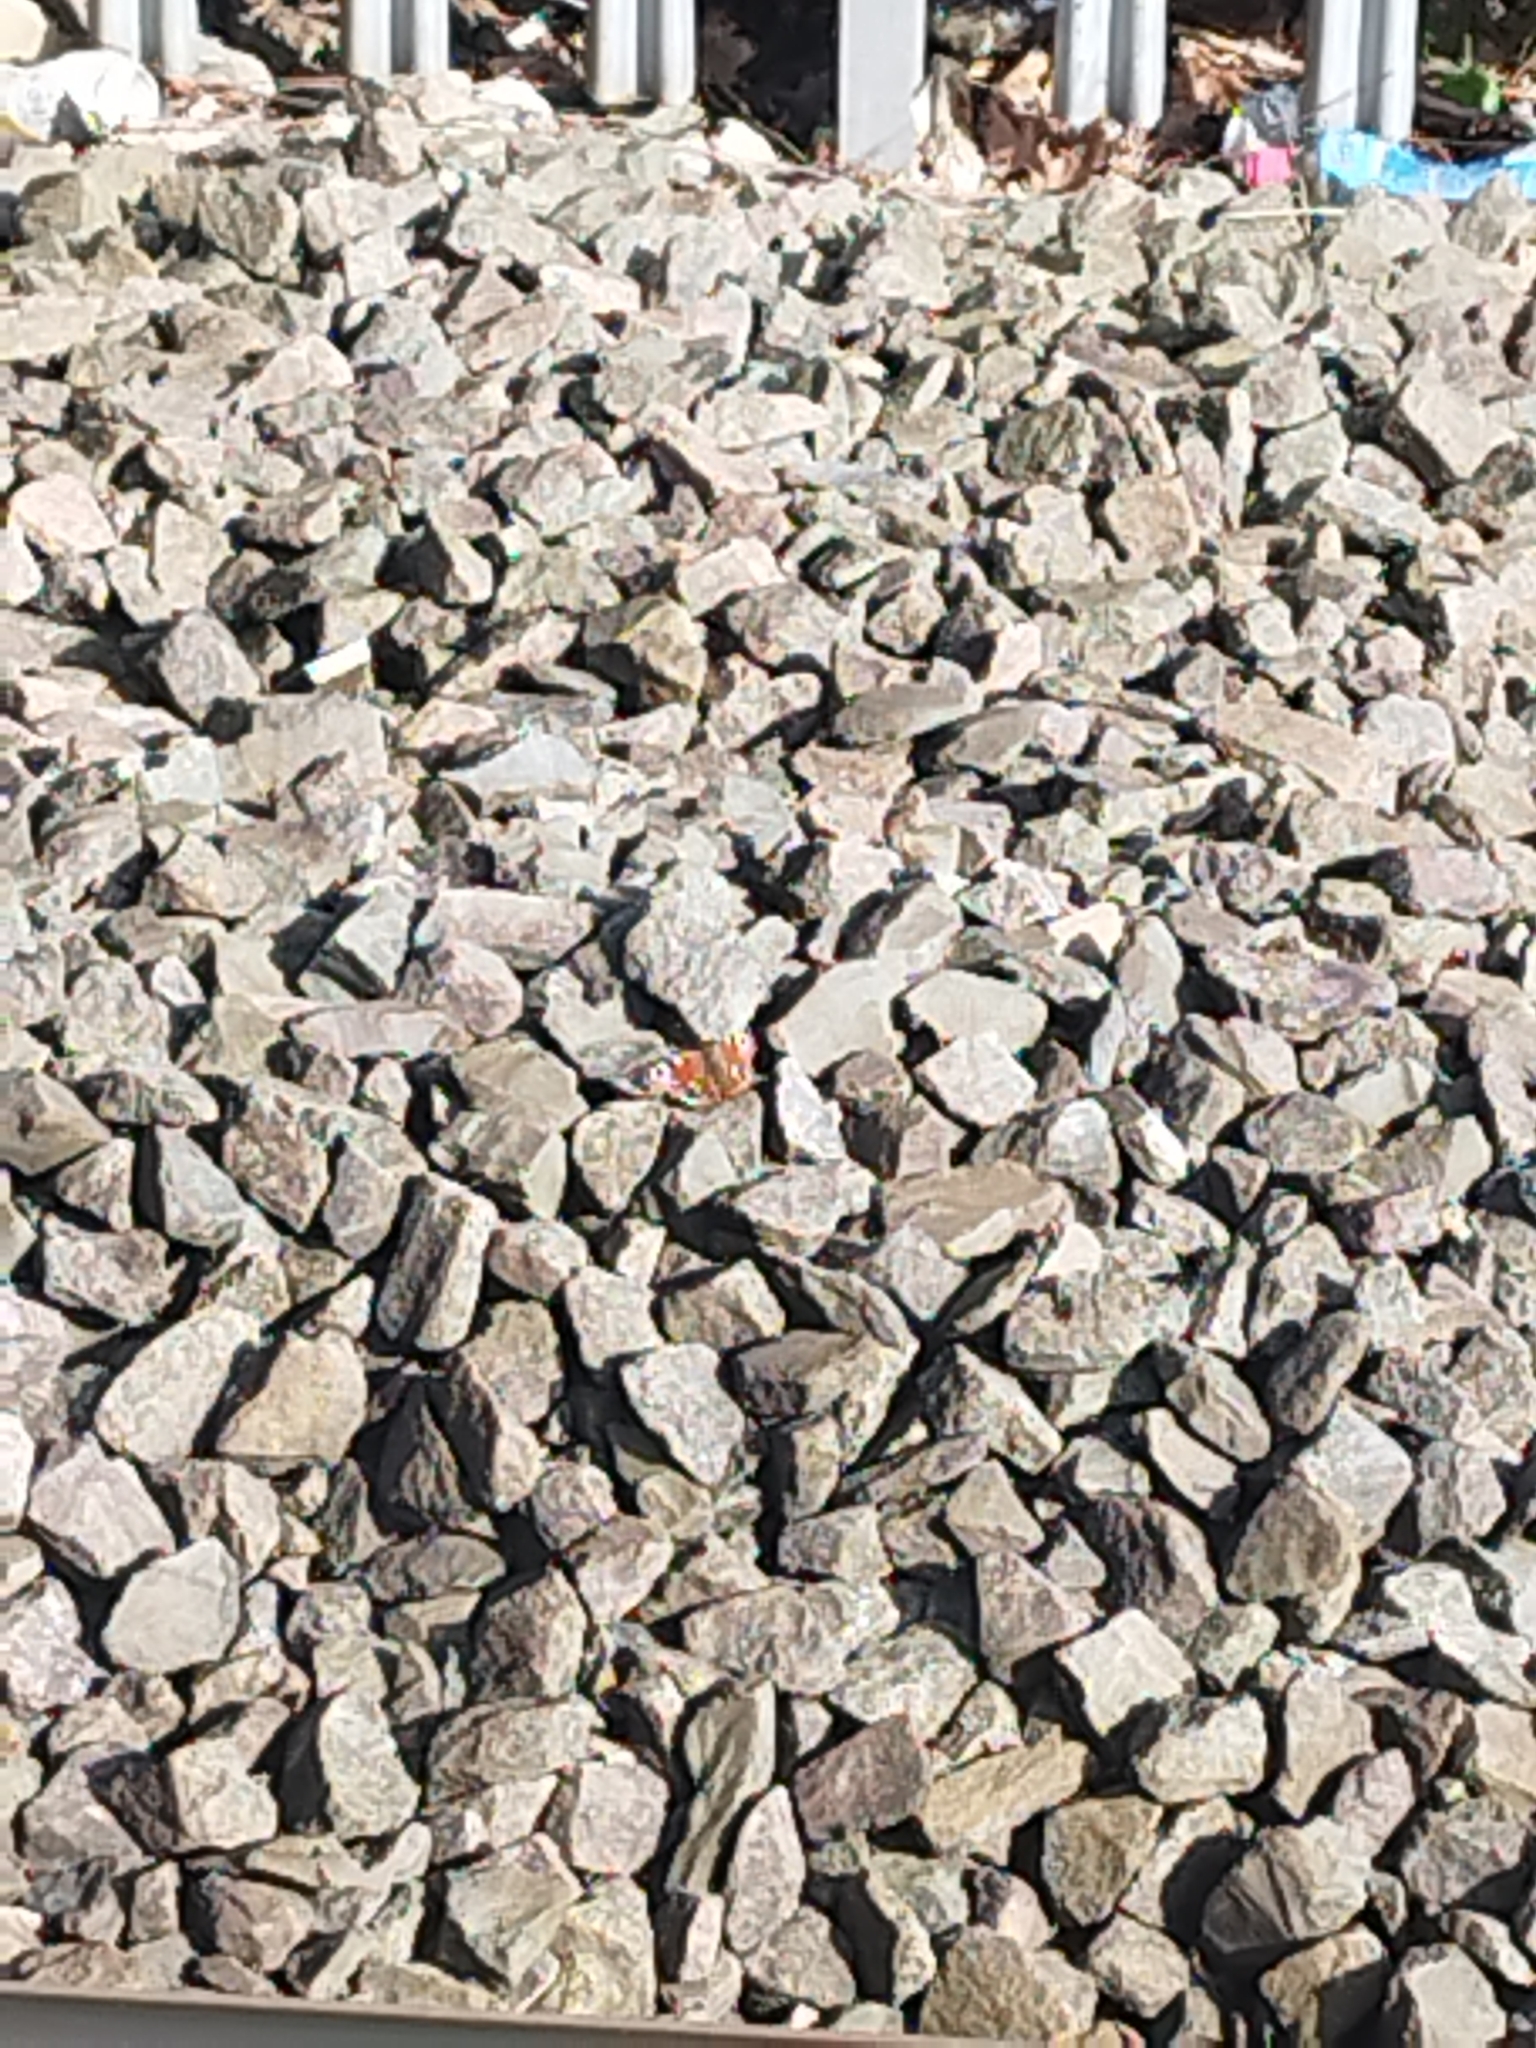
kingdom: Animalia
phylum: Arthropoda
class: Insecta
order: Lepidoptera
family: Nymphalidae
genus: Aglais
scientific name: Aglais io
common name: Peacock
